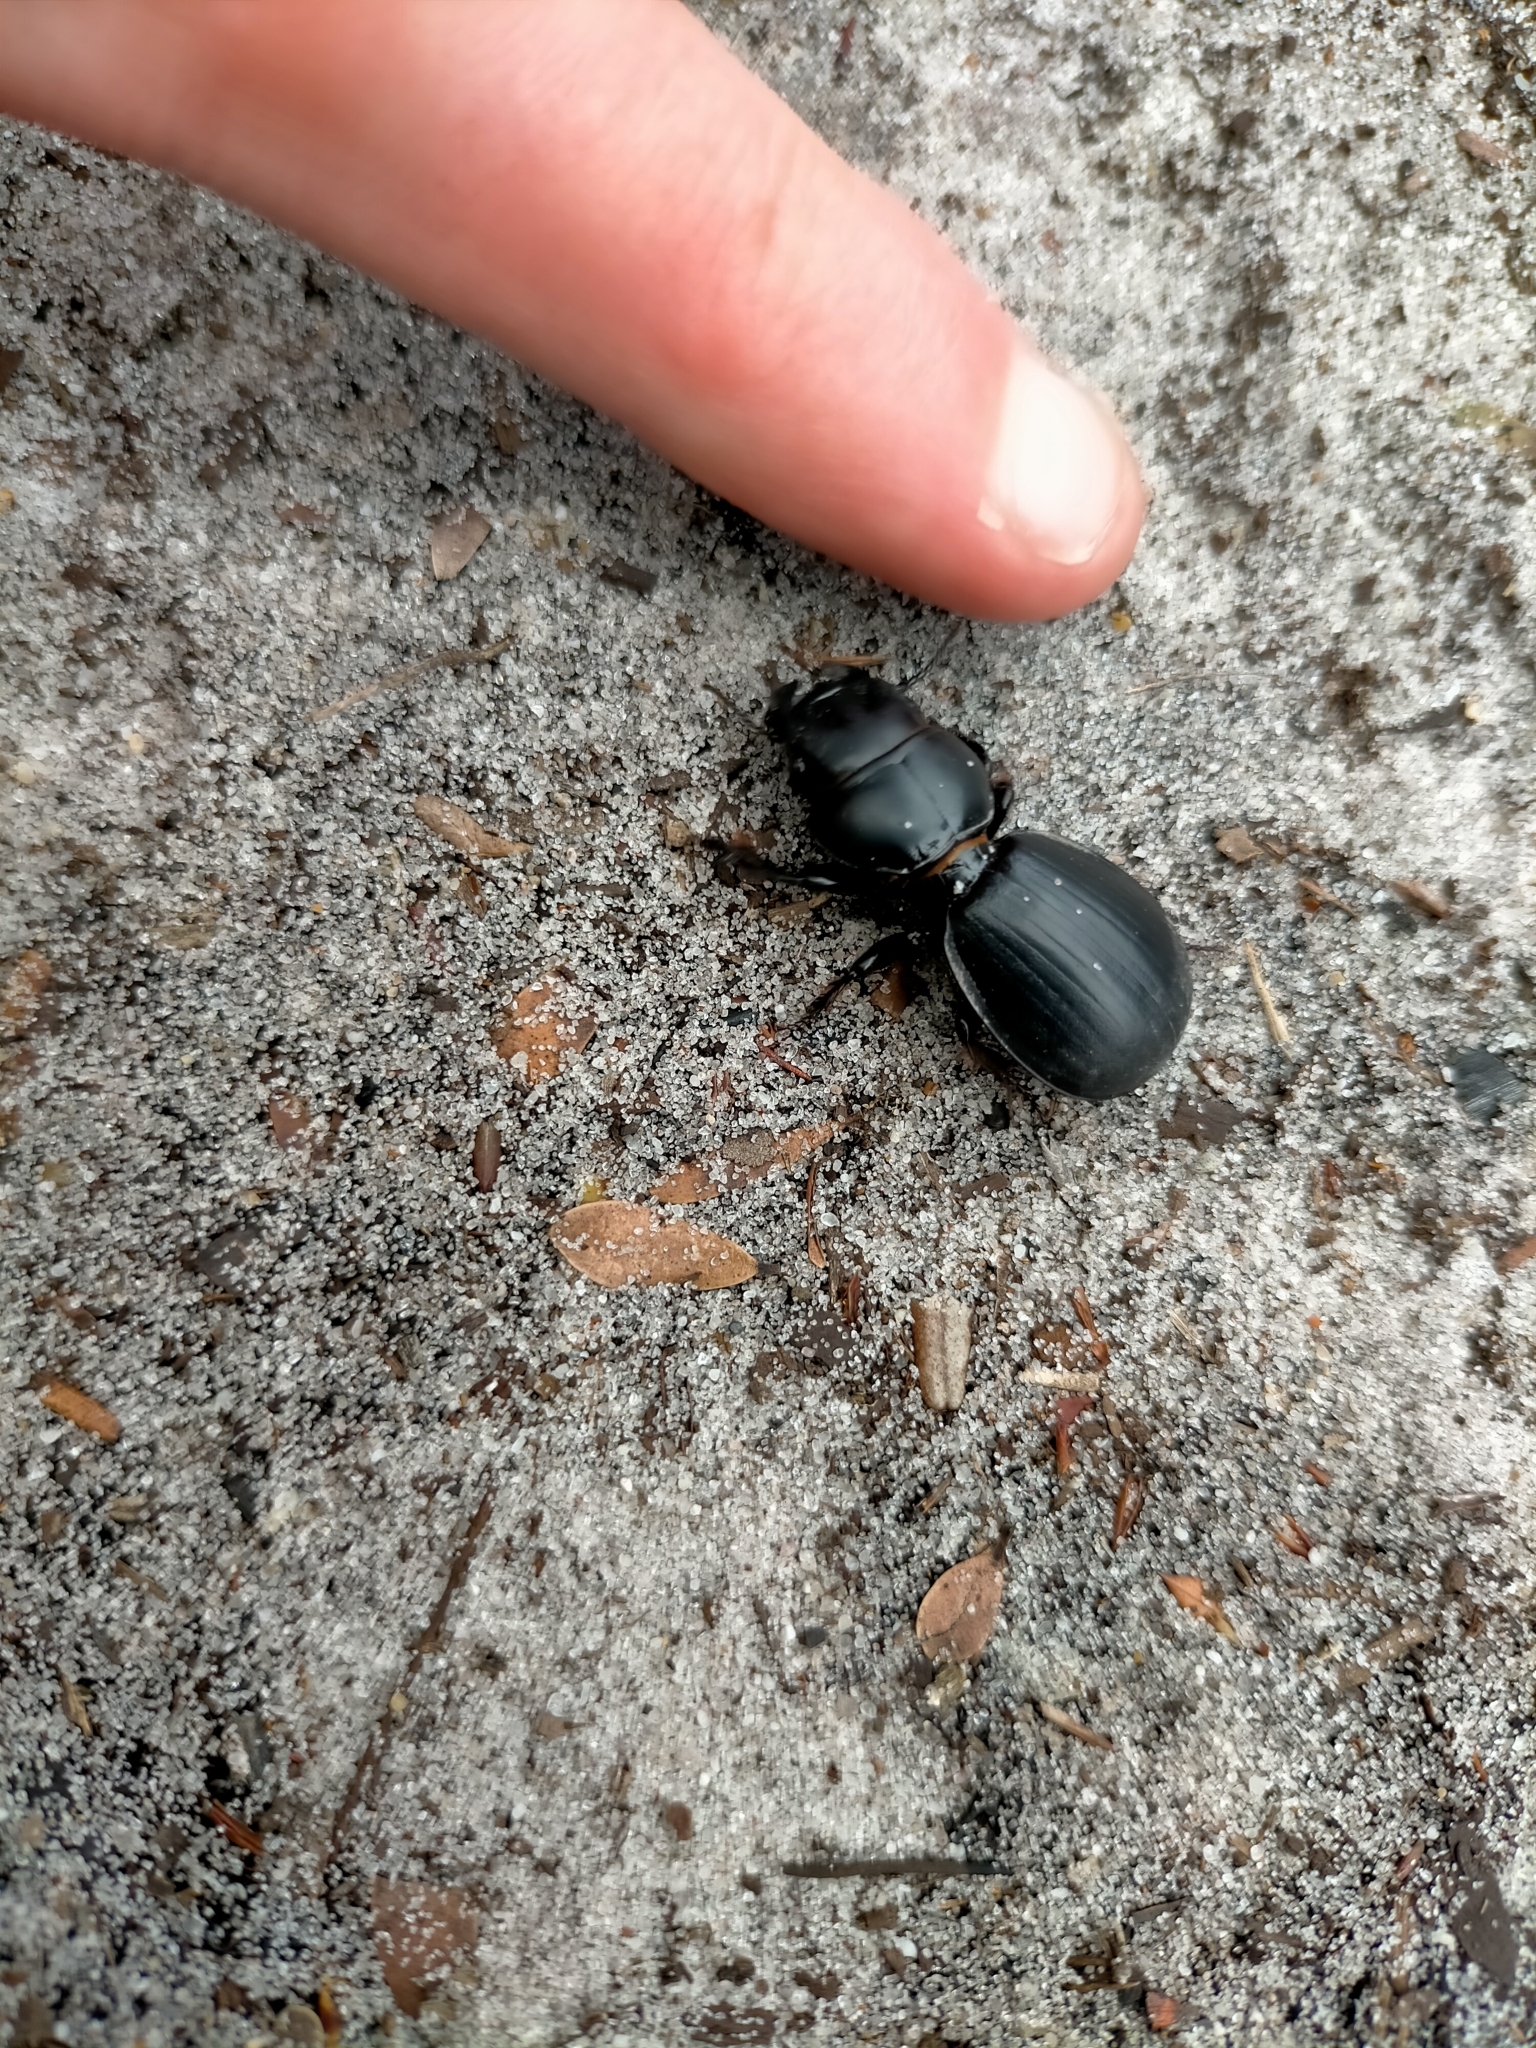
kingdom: Animalia
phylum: Arthropoda
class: Insecta
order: Coleoptera
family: Carabidae
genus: Scaraphites
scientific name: Scaraphites rotundipennis
